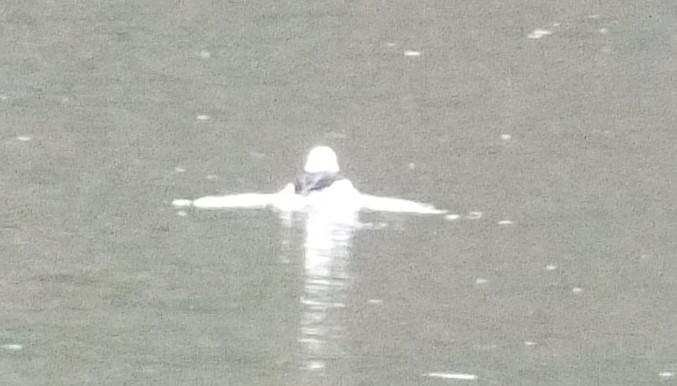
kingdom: Animalia
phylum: Chordata
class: Aves
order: Anseriformes
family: Anatidae
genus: Bucephala
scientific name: Bucephala albeola
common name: Bufflehead
